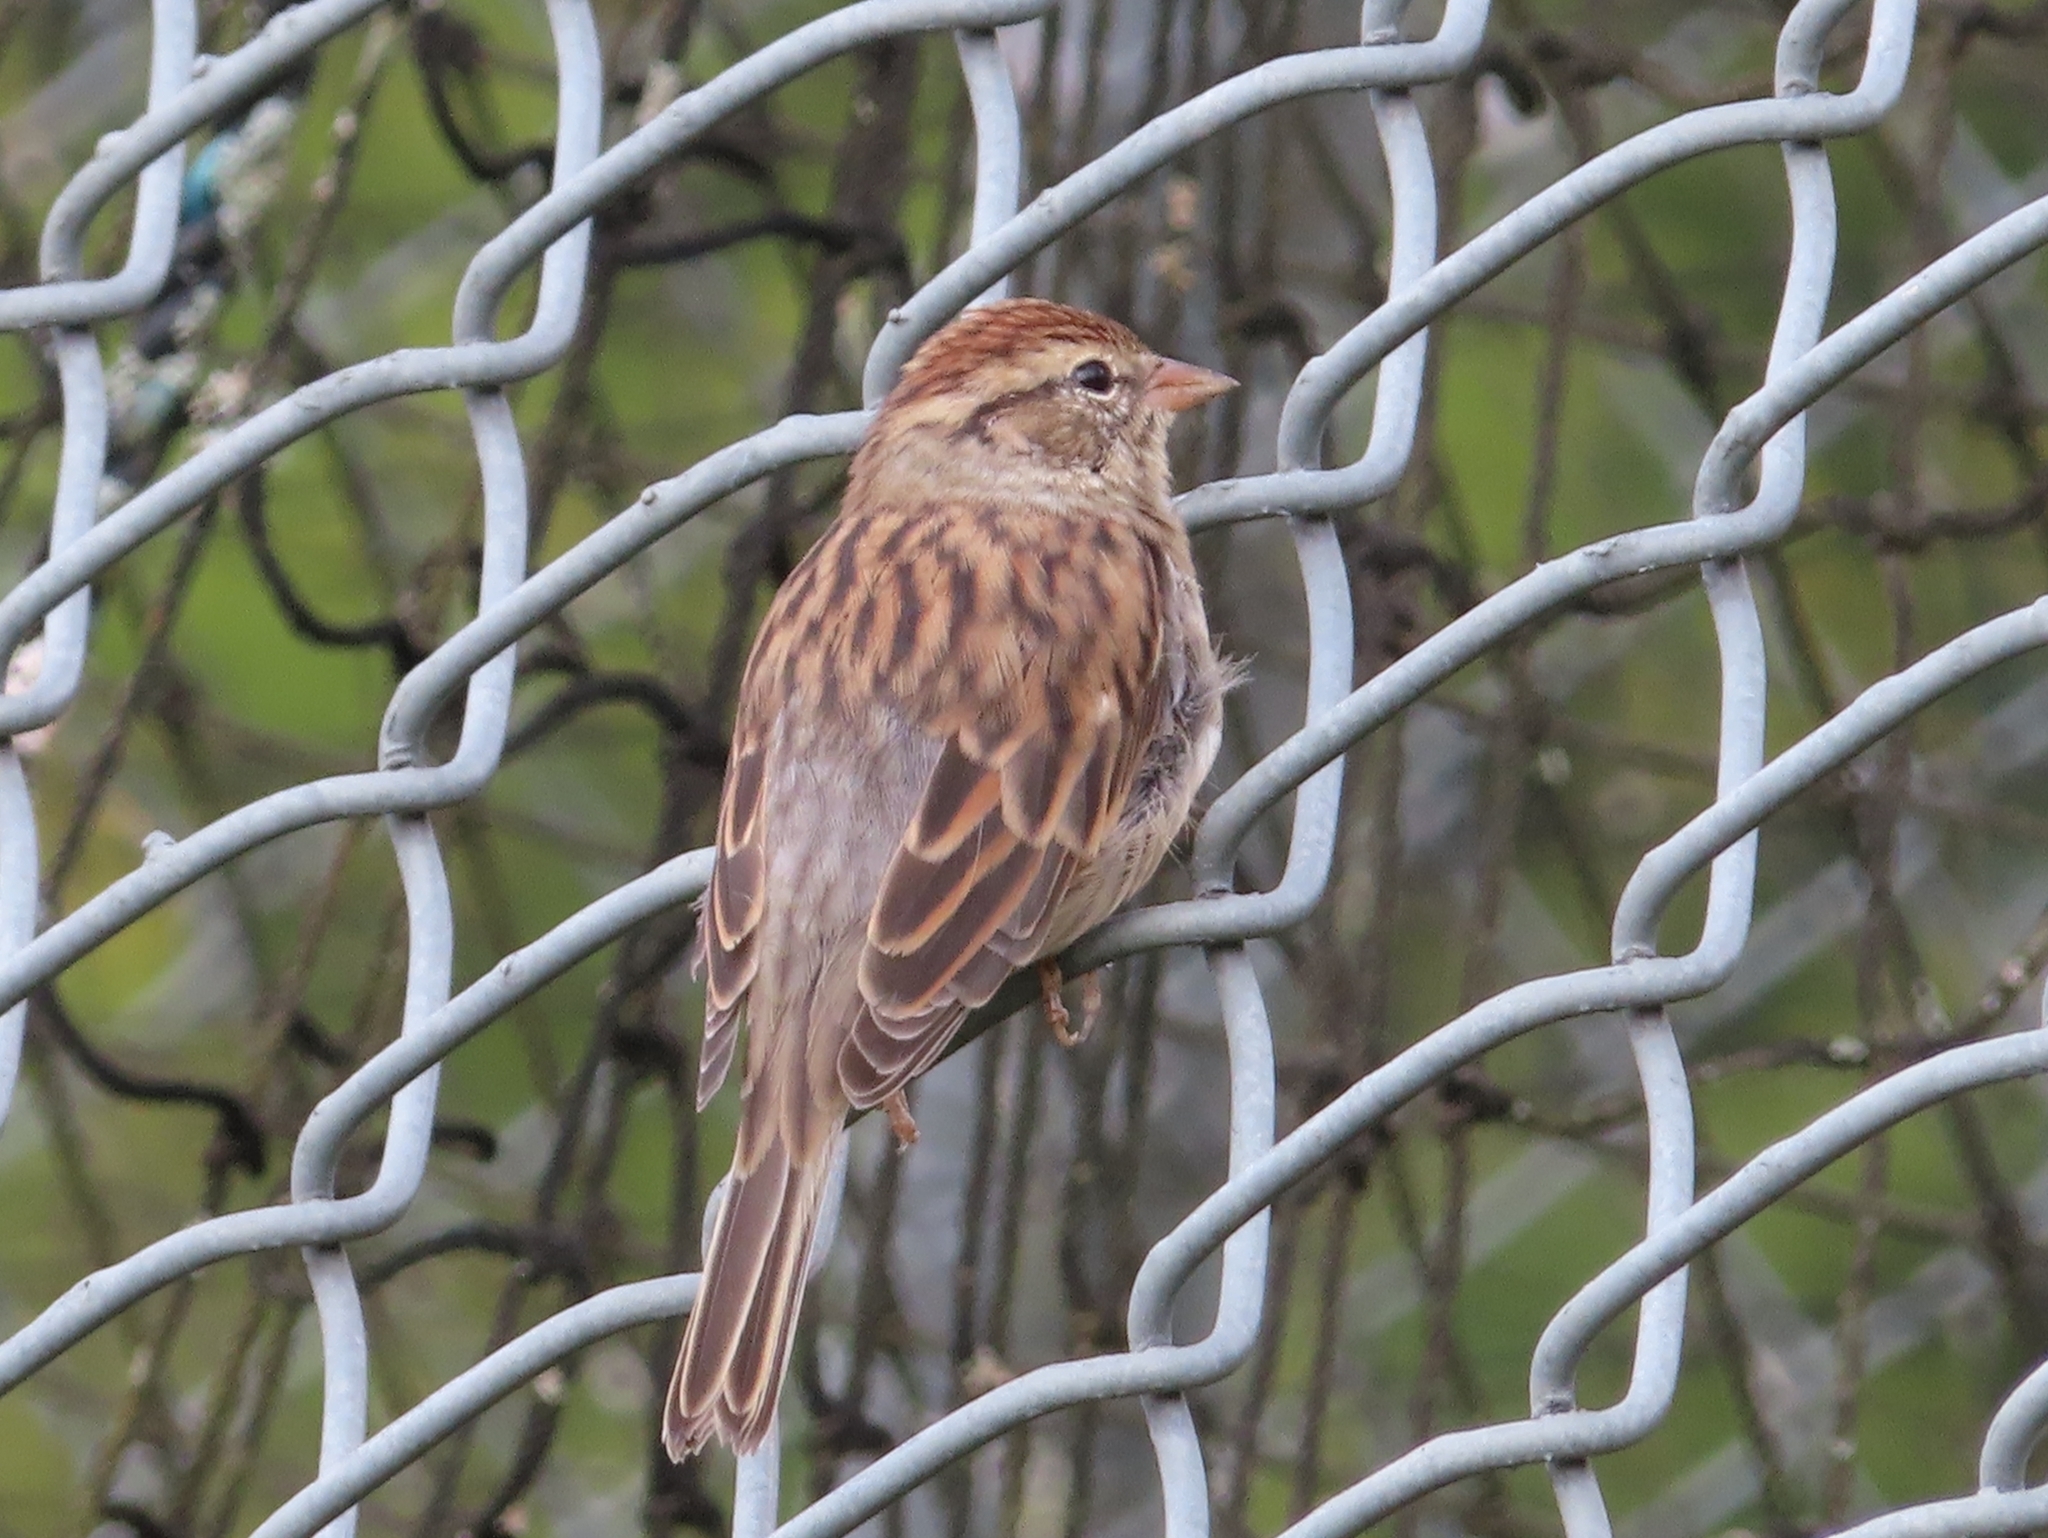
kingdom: Animalia
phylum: Chordata
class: Aves
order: Passeriformes
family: Passerellidae
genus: Spizella
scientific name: Spizella passerina
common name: Chipping sparrow
